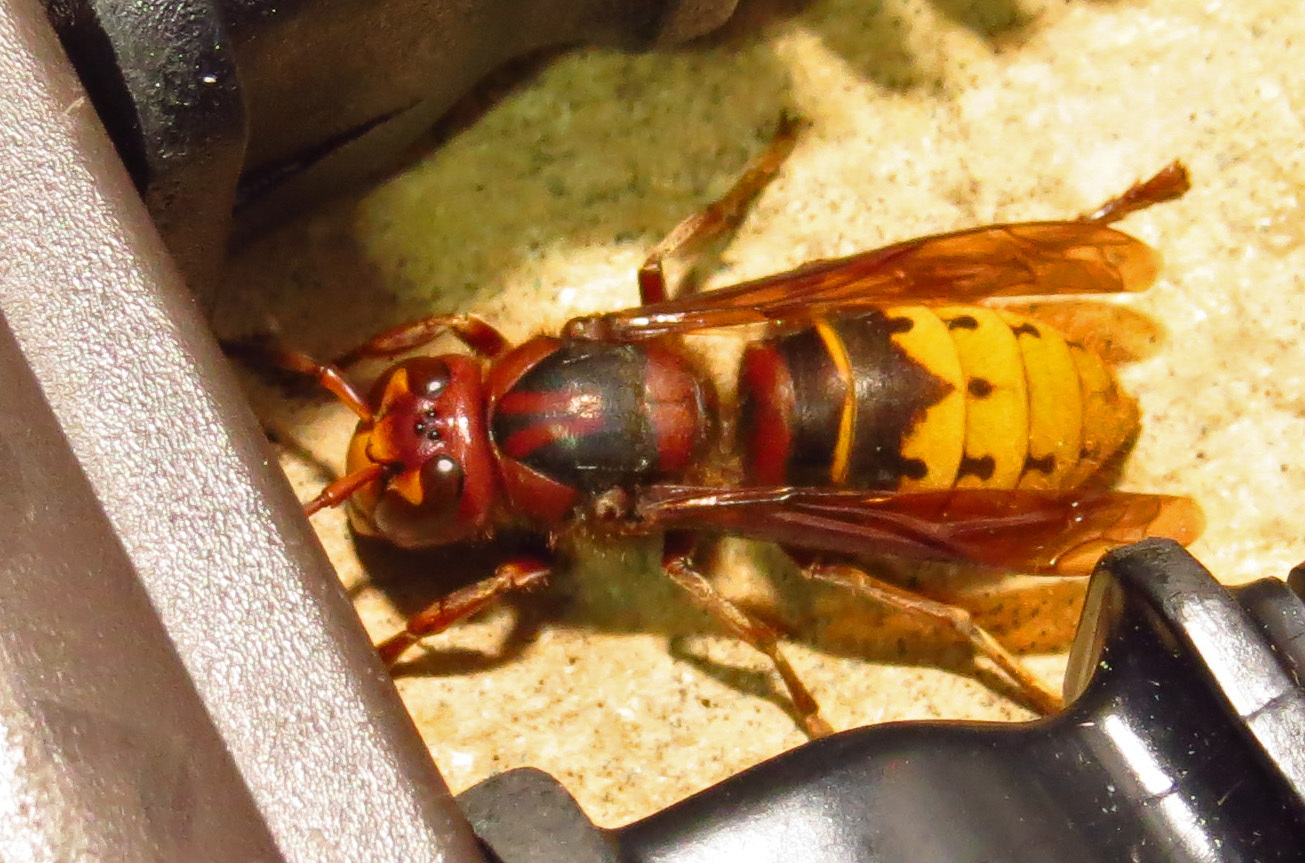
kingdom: Animalia
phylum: Arthropoda
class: Insecta
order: Hymenoptera
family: Vespidae
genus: Vespa
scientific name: Vespa crabro
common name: Hornet
